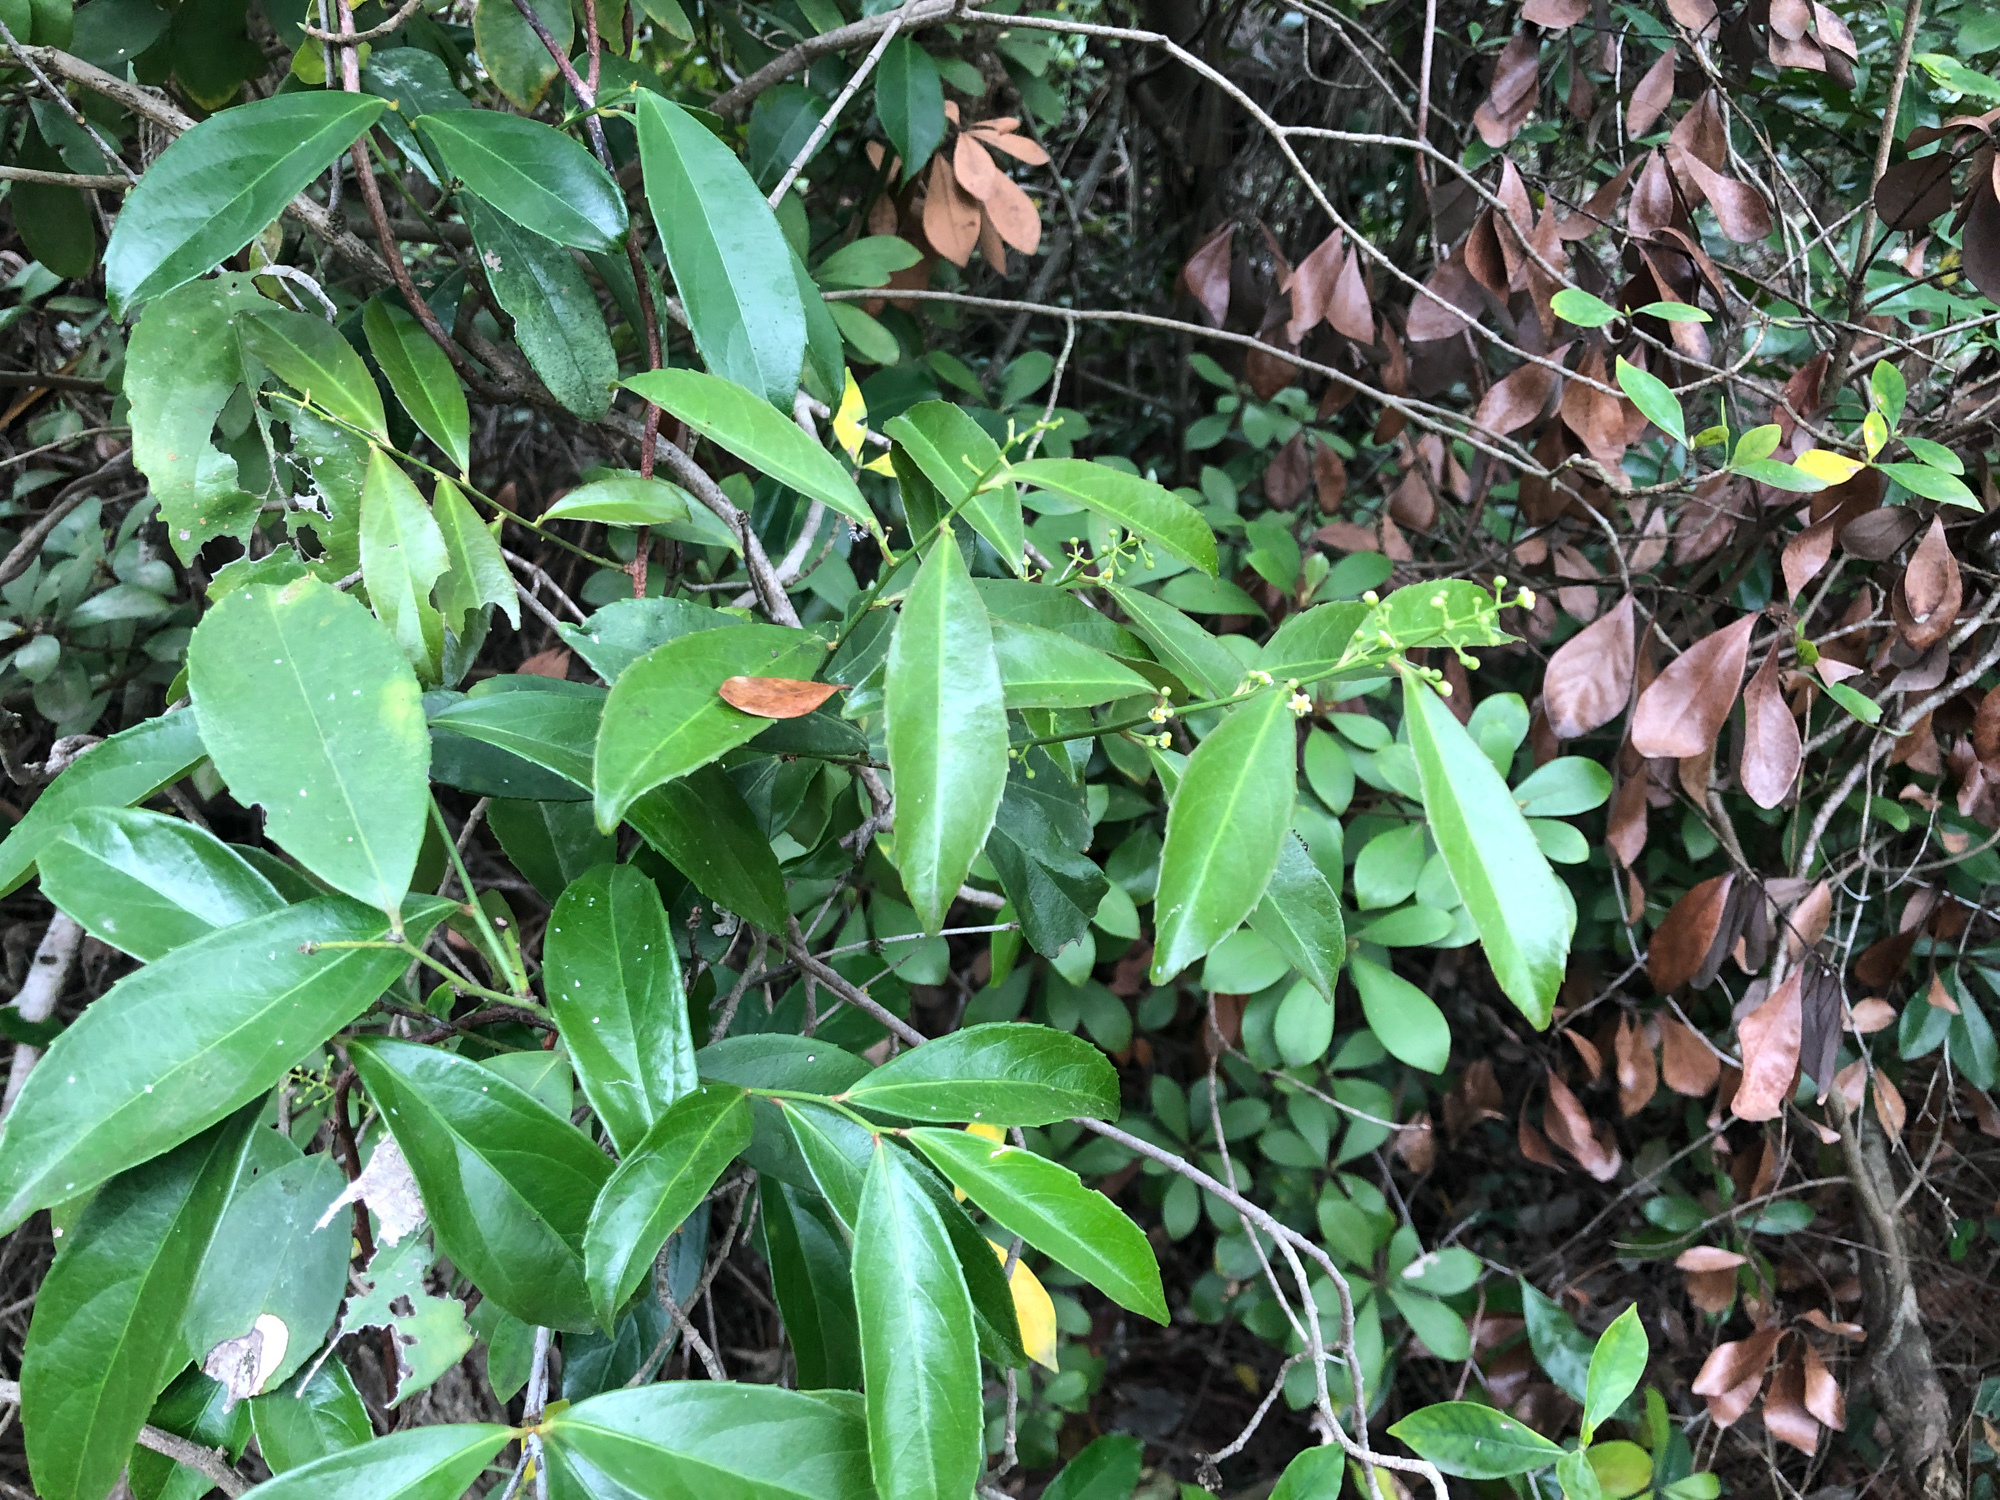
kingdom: Plantae
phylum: Tracheophyta
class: Magnoliopsida
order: Celastrales
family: Celastraceae
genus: Celastrus
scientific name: Celastrus hindsii
